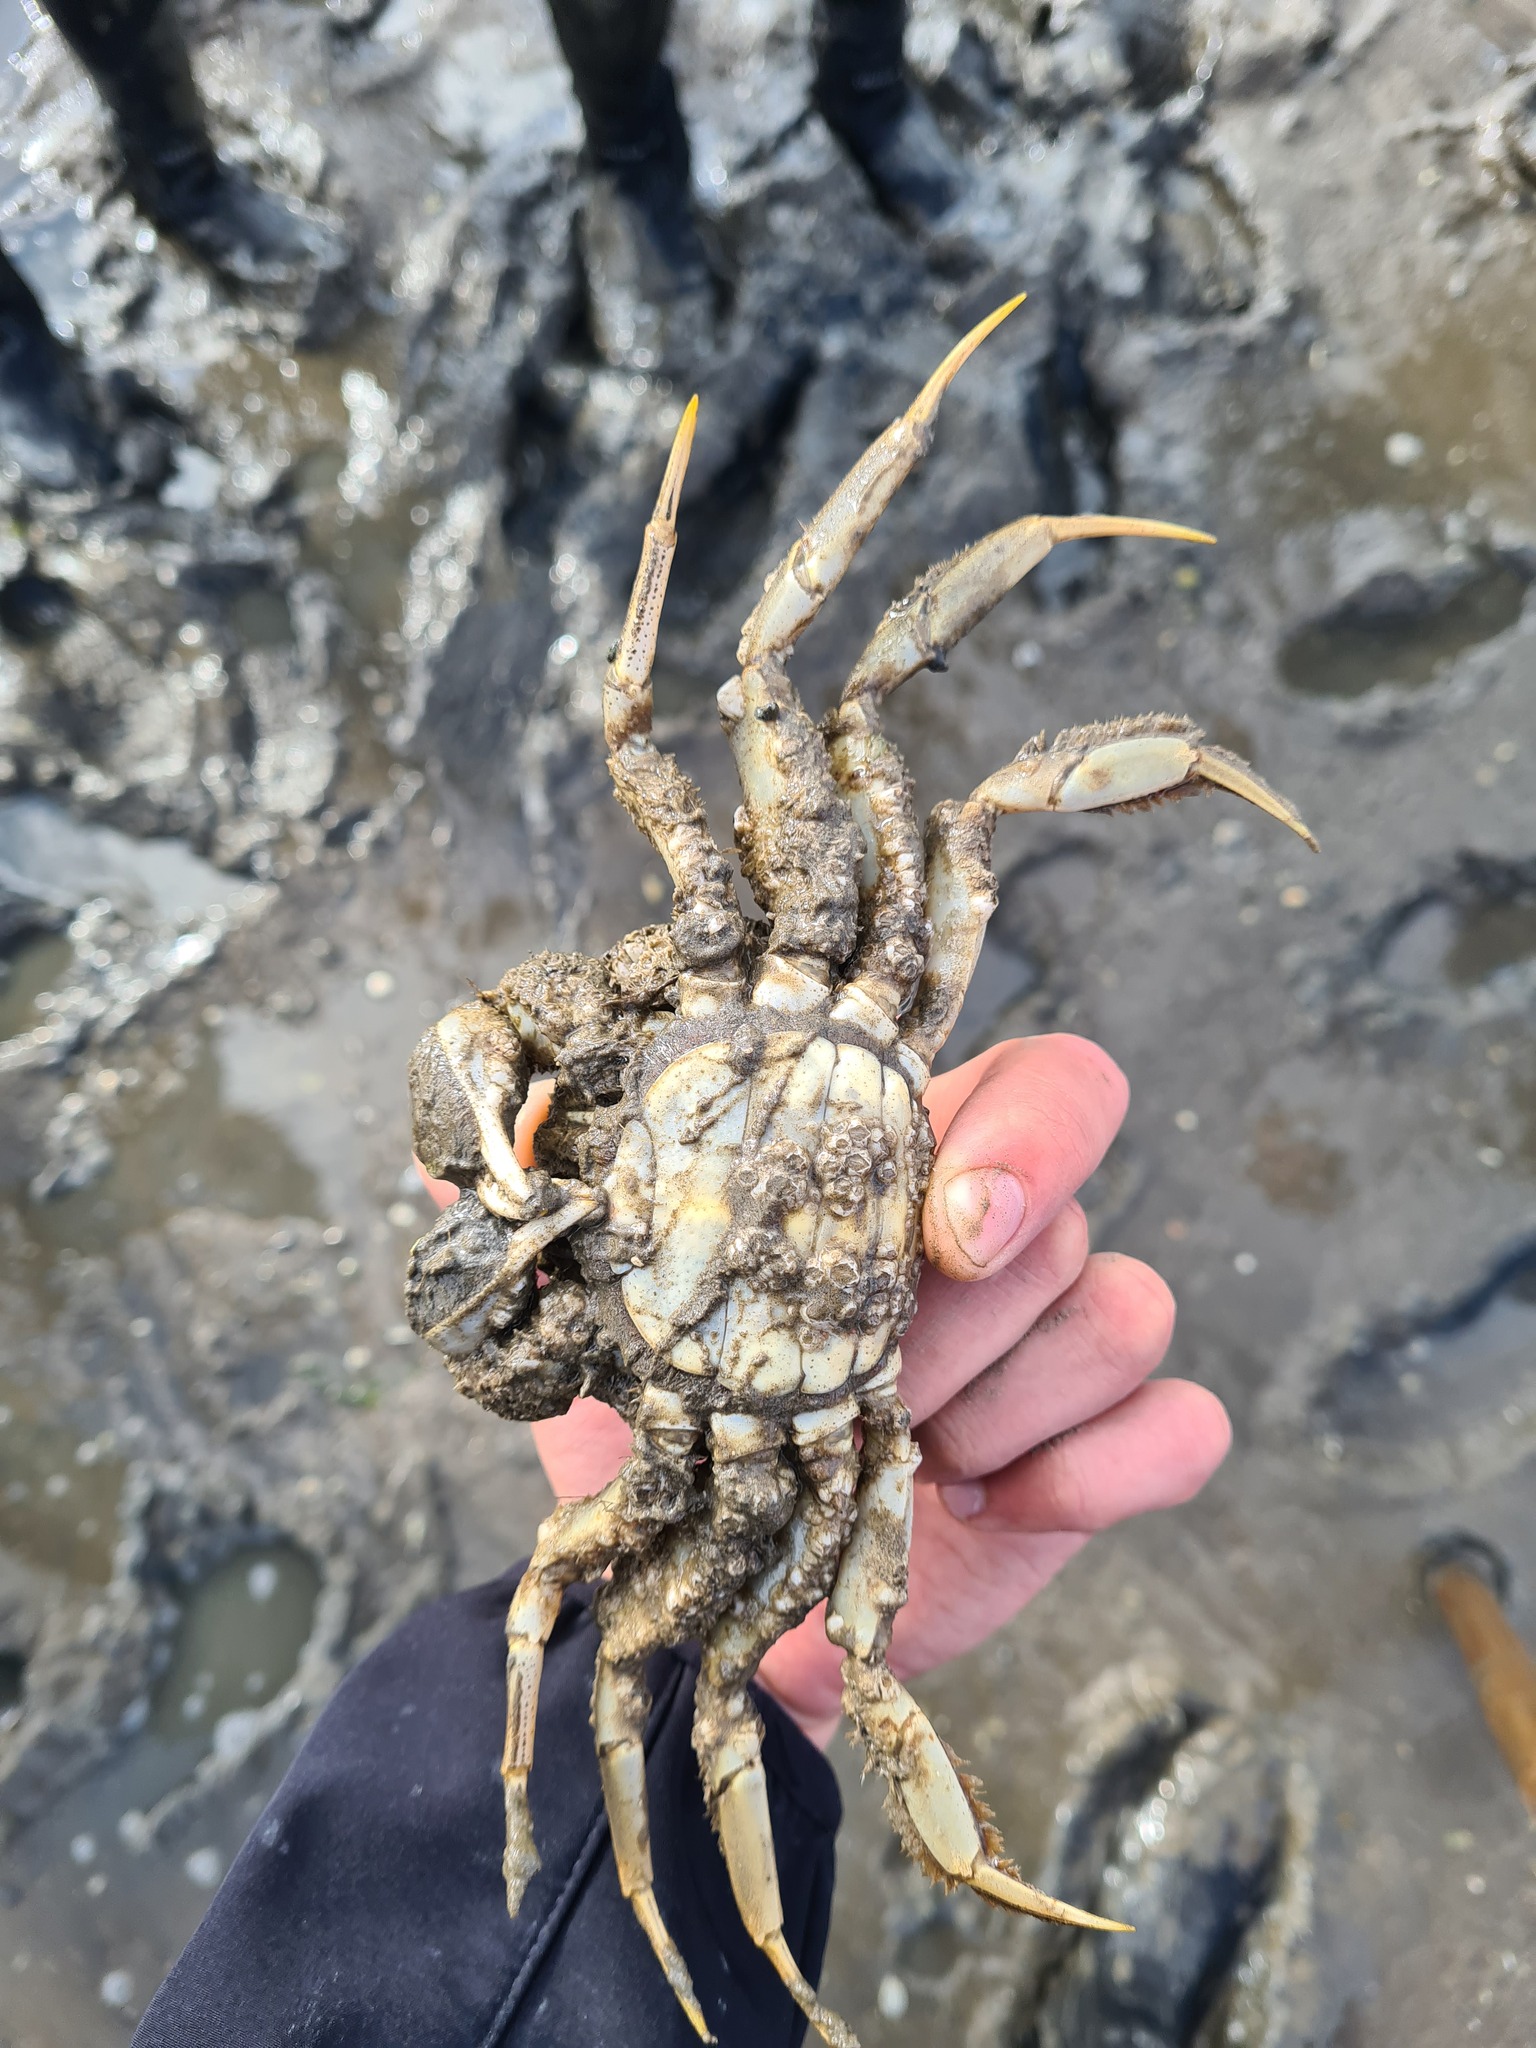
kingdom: Animalia
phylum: Arthropoda
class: Malacostraca
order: Decapoda
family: Varunidae
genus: Eriocheir
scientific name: Eriocheir sinensis
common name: Chinese mitten crab
